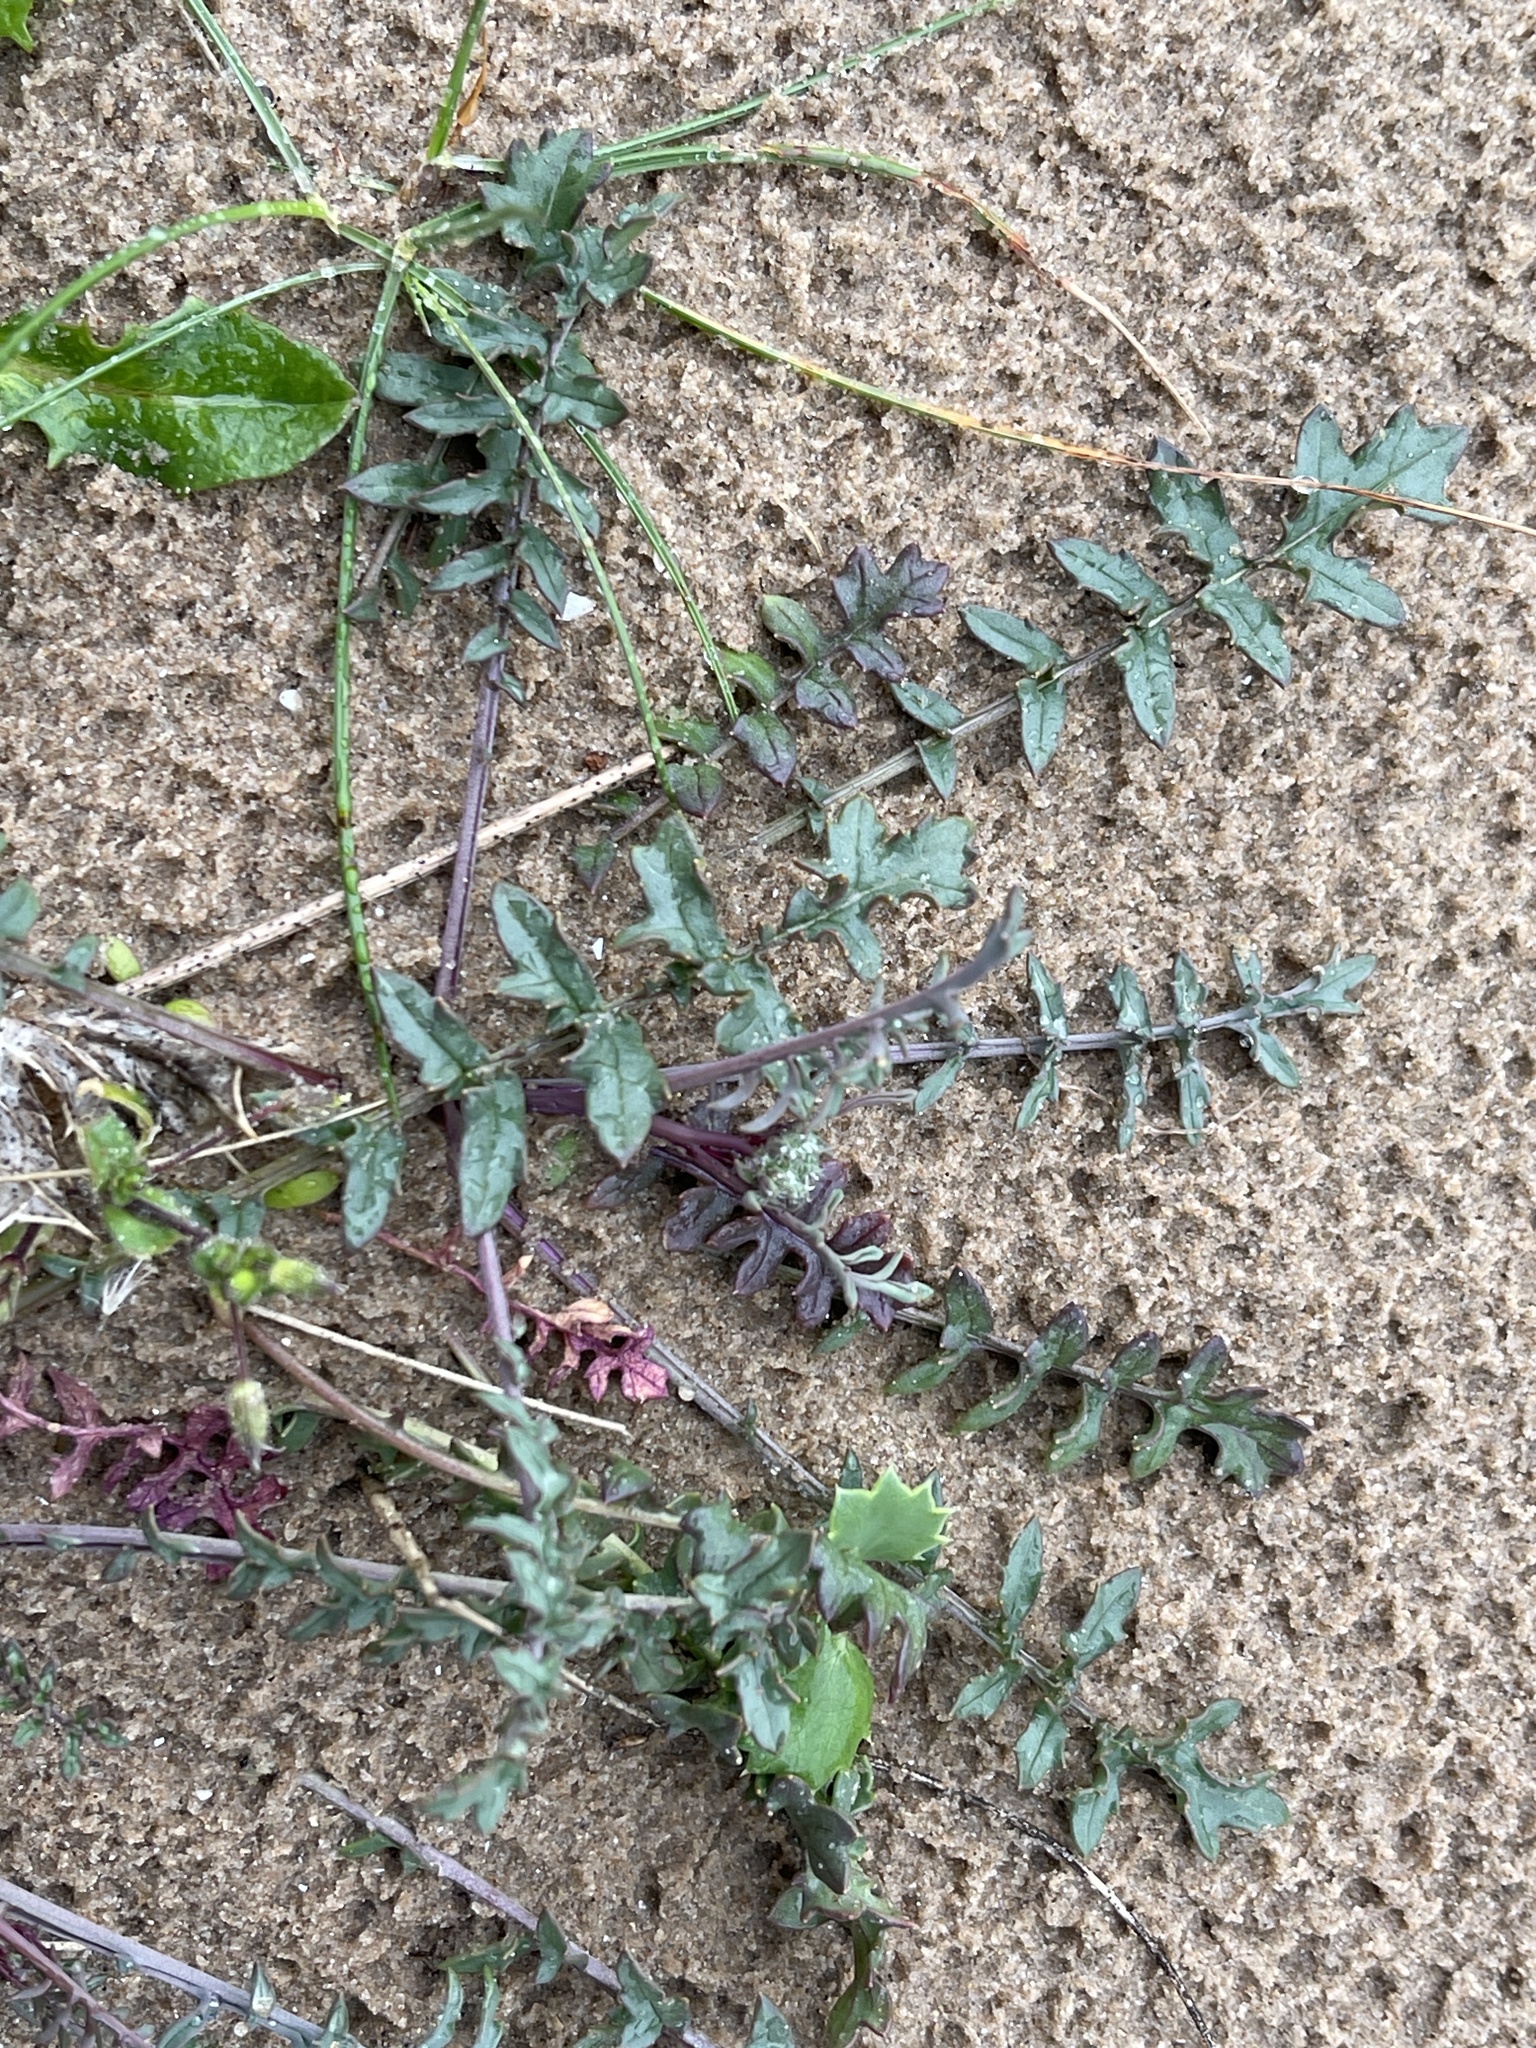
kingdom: Plantae
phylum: Tracheophyta
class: Magnoliopsida
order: Brassicales
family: Brassicaceae
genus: Coincya
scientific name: Coincya monensis
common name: Star-mustard
